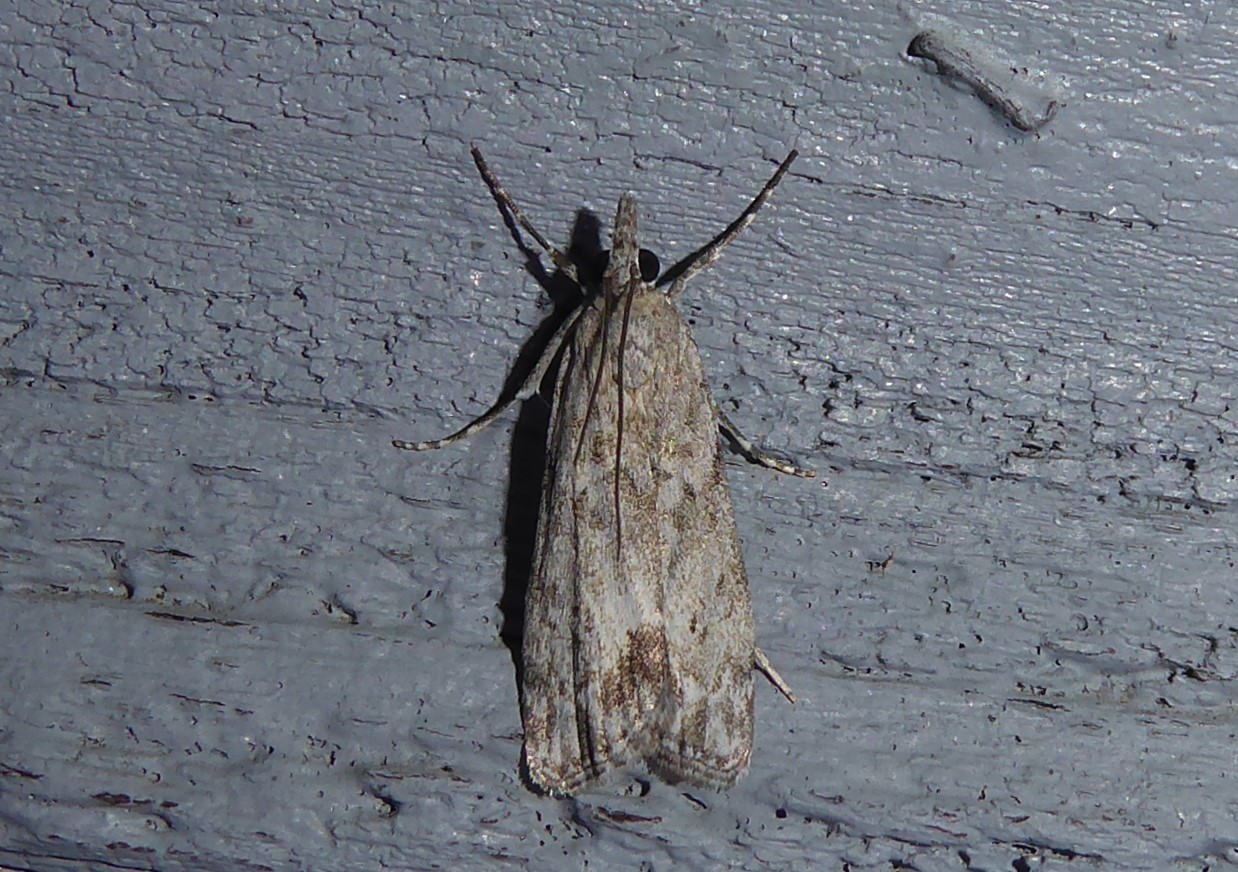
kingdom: Animalia
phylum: Arthropoda
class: Insecta
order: Lepidoptera
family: Crambidae
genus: Eudonia
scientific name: Eudonia rakaiensis
